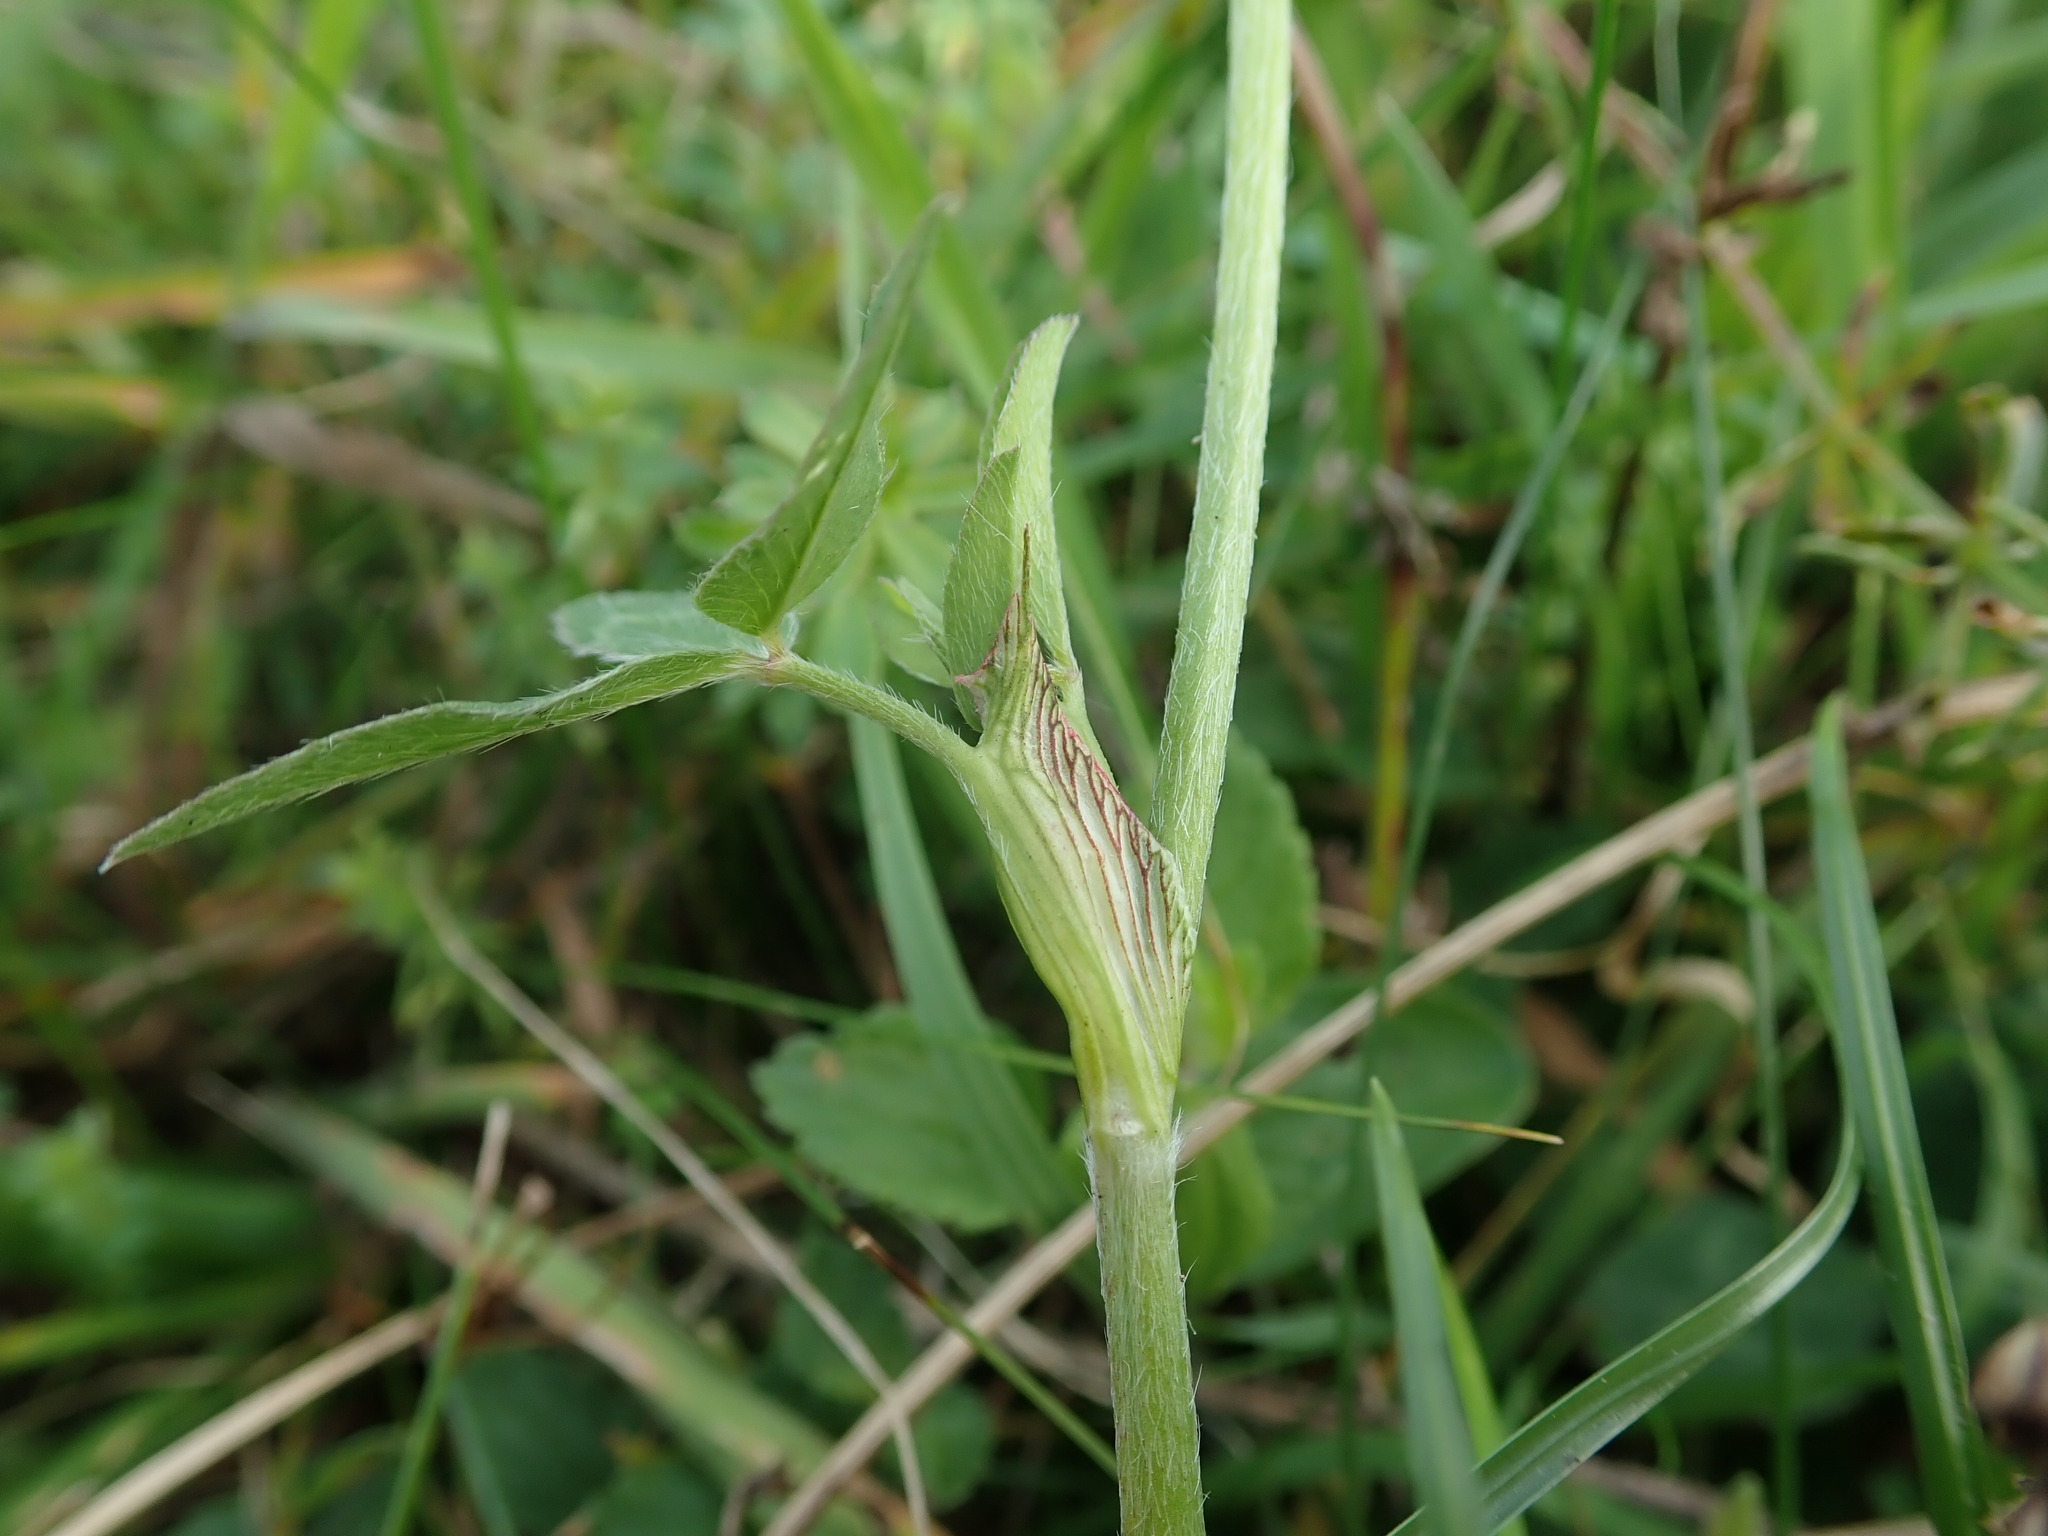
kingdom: Plantae
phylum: Tracheophyta
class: Magnoliopsida
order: Fabales
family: Fabaceae
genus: Trifolium
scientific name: Trifolium pratense
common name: Red clover
